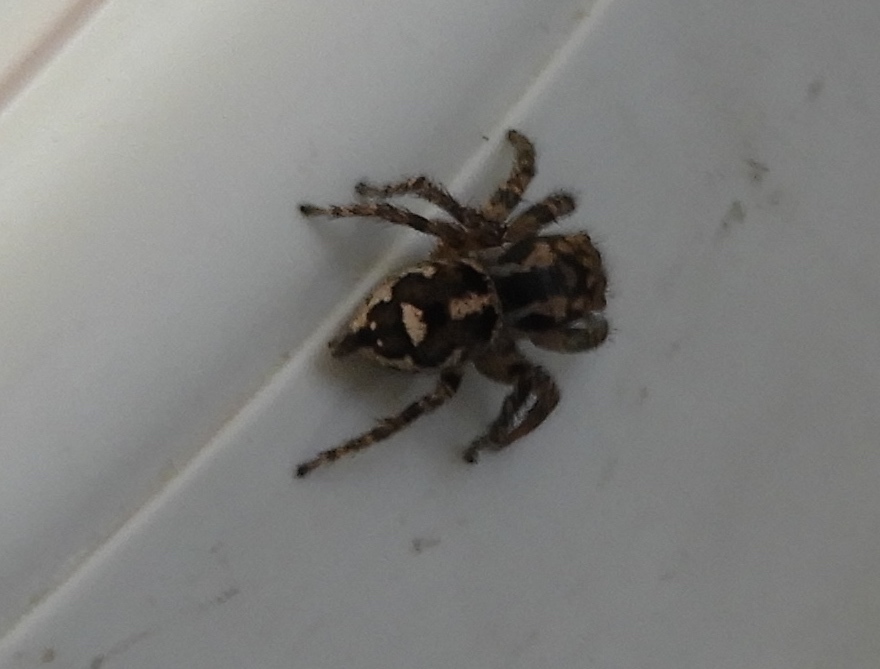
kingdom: Animalia
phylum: Arthropoda
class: Arachnida
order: Araneae
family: Salticidae
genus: Habronattus
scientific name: Habronattus
